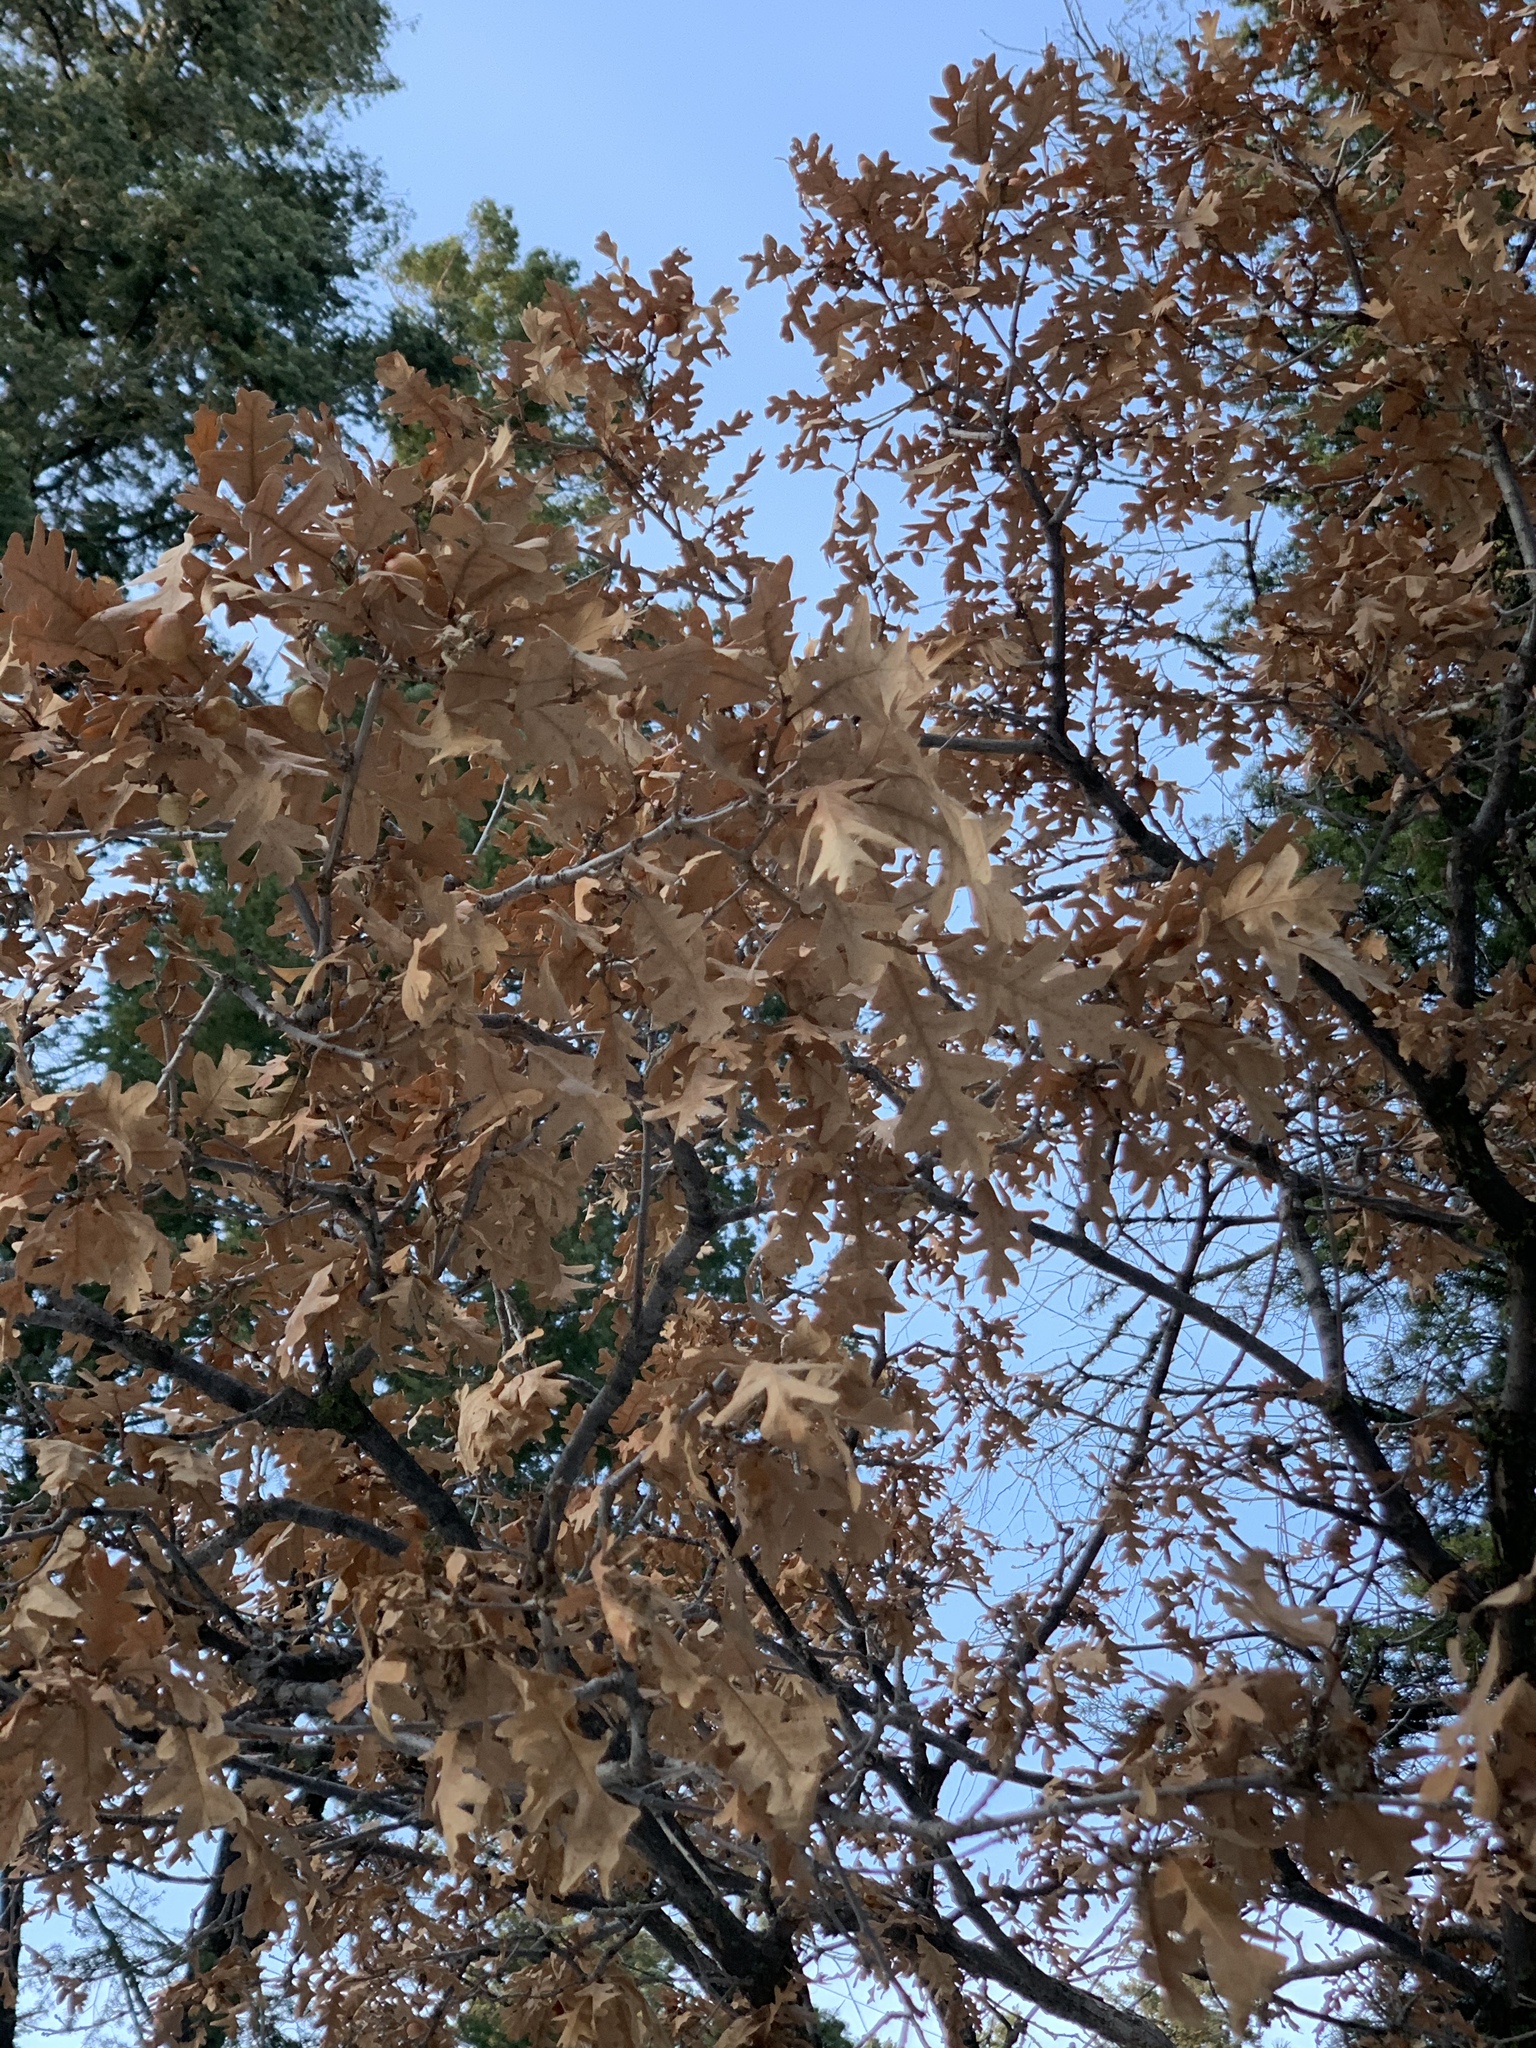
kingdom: Plantae
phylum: Tracheophyta
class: Magnoliopsida
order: Fagales
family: Fagaceae
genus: Quercus
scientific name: Quercus gambelii
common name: Gambel oak
